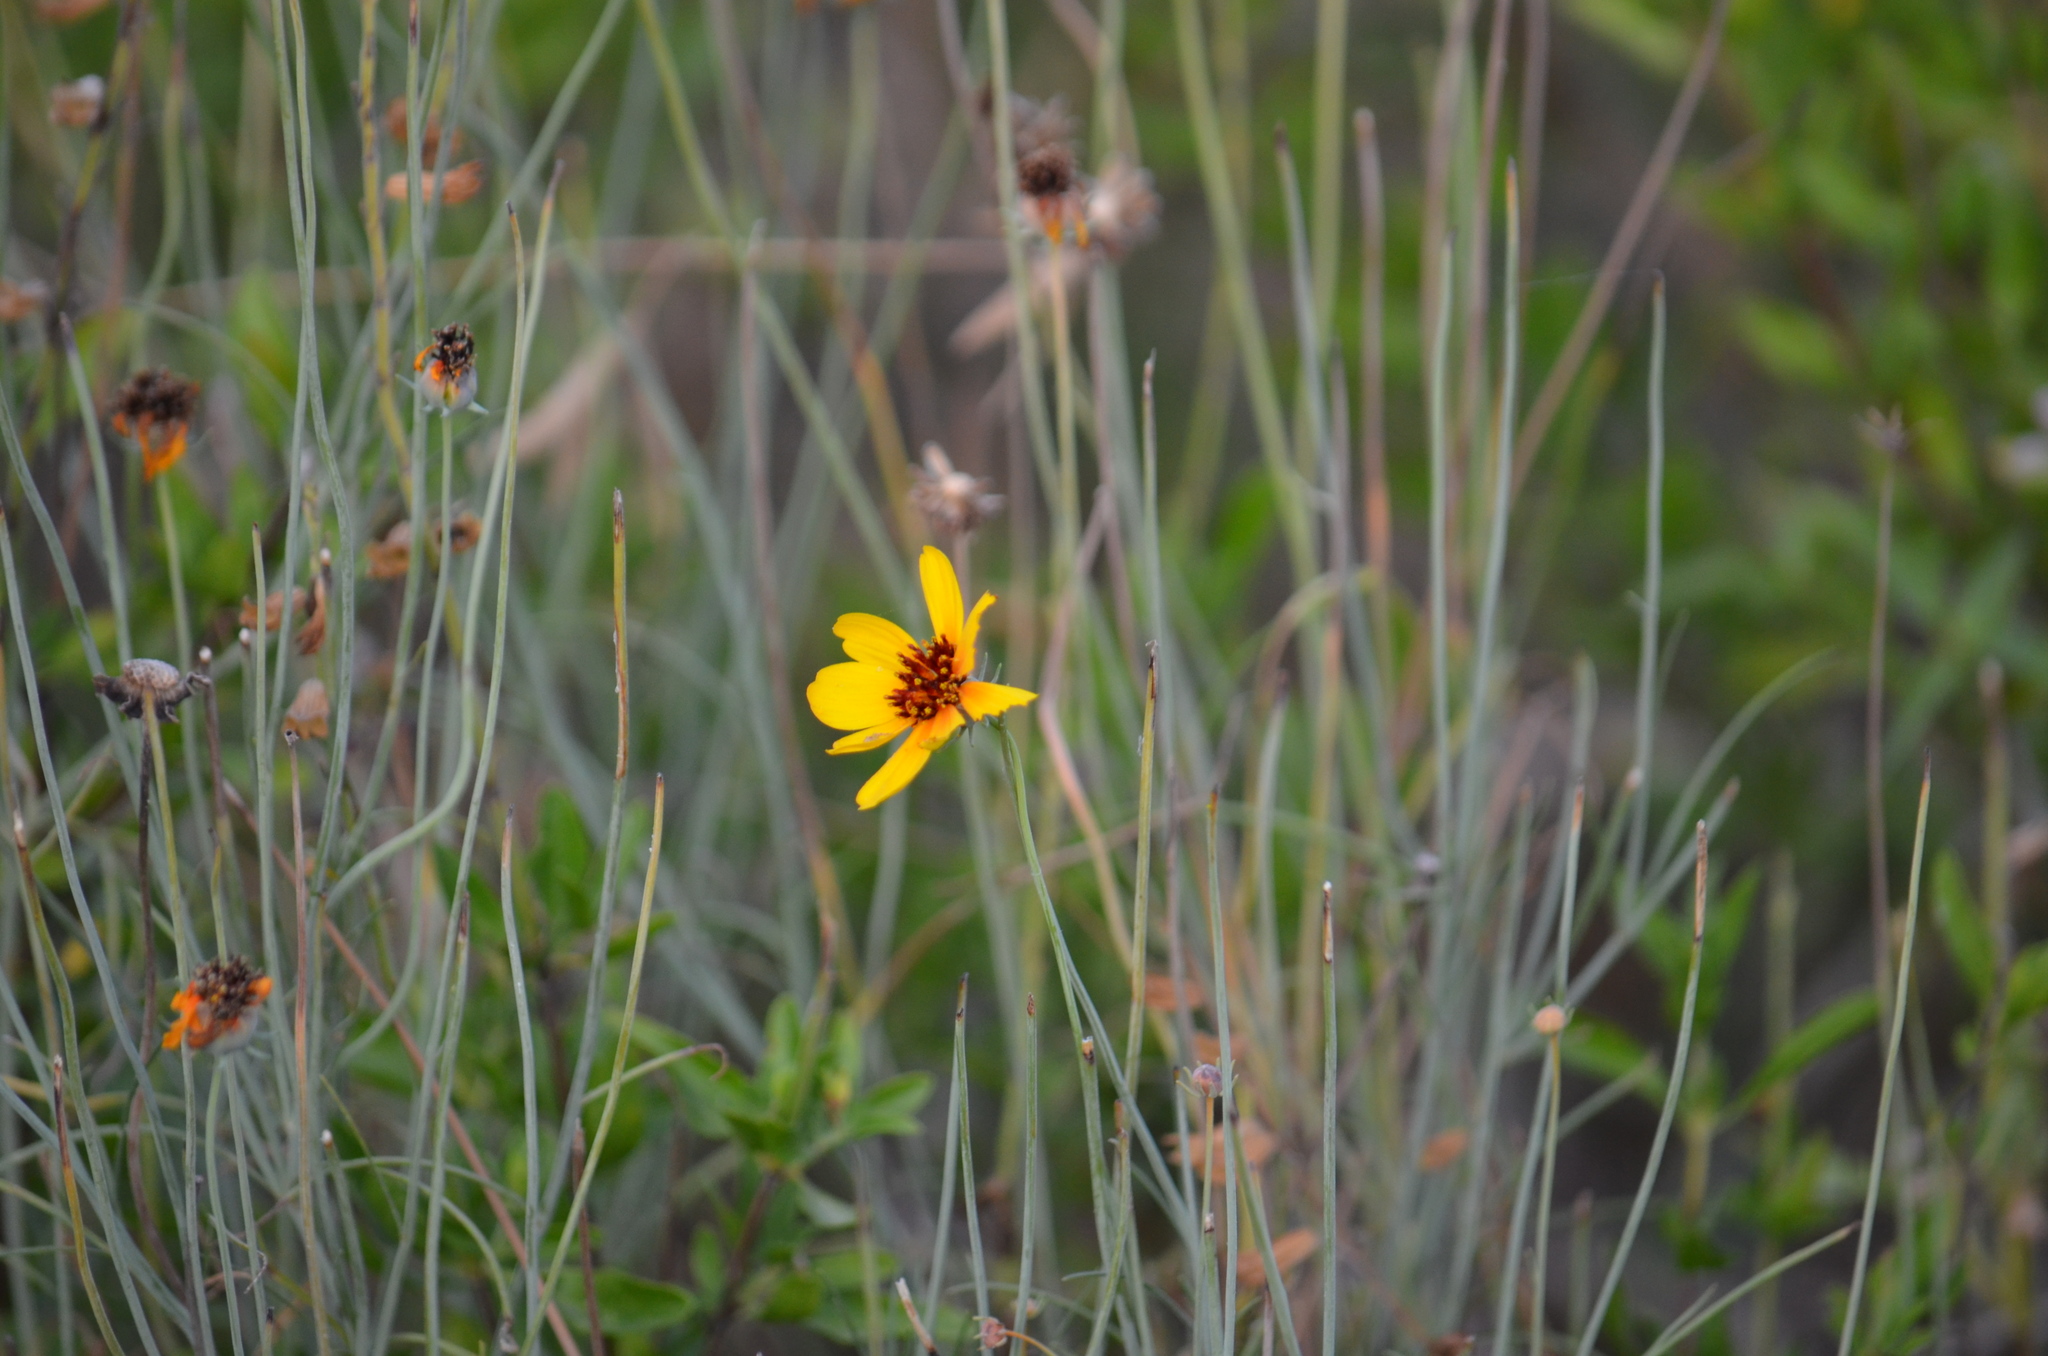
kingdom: Plantae
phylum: Tracheophyta
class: Magnoliopsida
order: Asterales
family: Asteraceae
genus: Thelesperma
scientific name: Thelesperma filifolium
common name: Stiff greenthread
